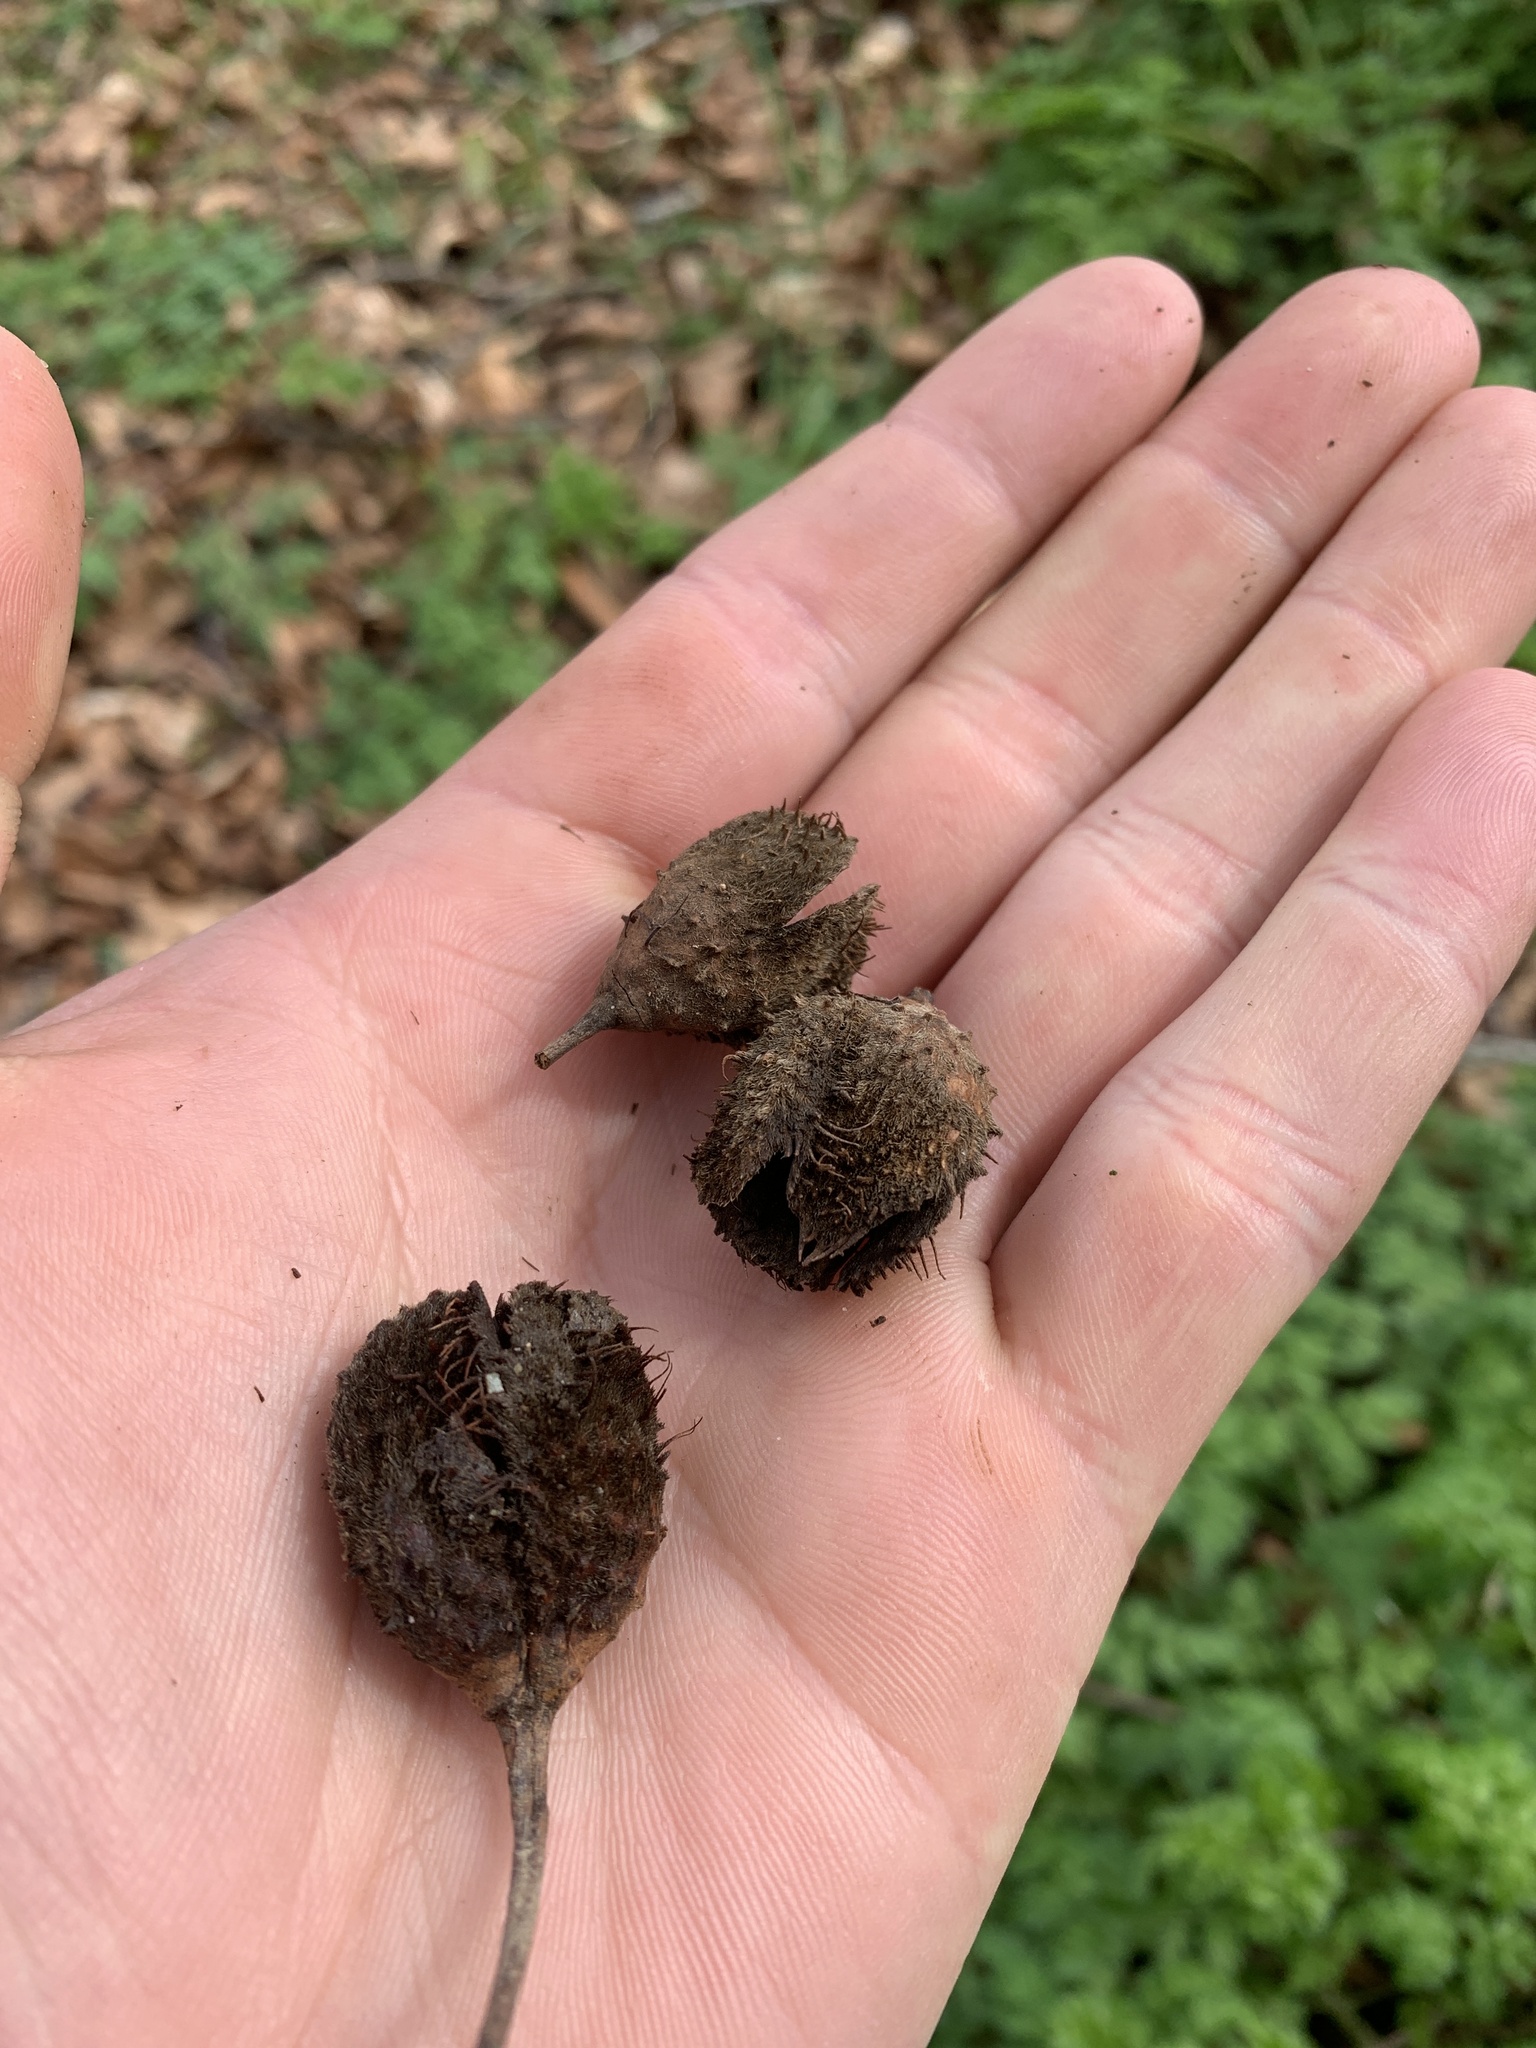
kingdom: Plantae
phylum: Tracheophyta
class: Magnoliopsida
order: Fagales
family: Fagaceae
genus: Fagus
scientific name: Fagus sylvatica
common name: Beech
